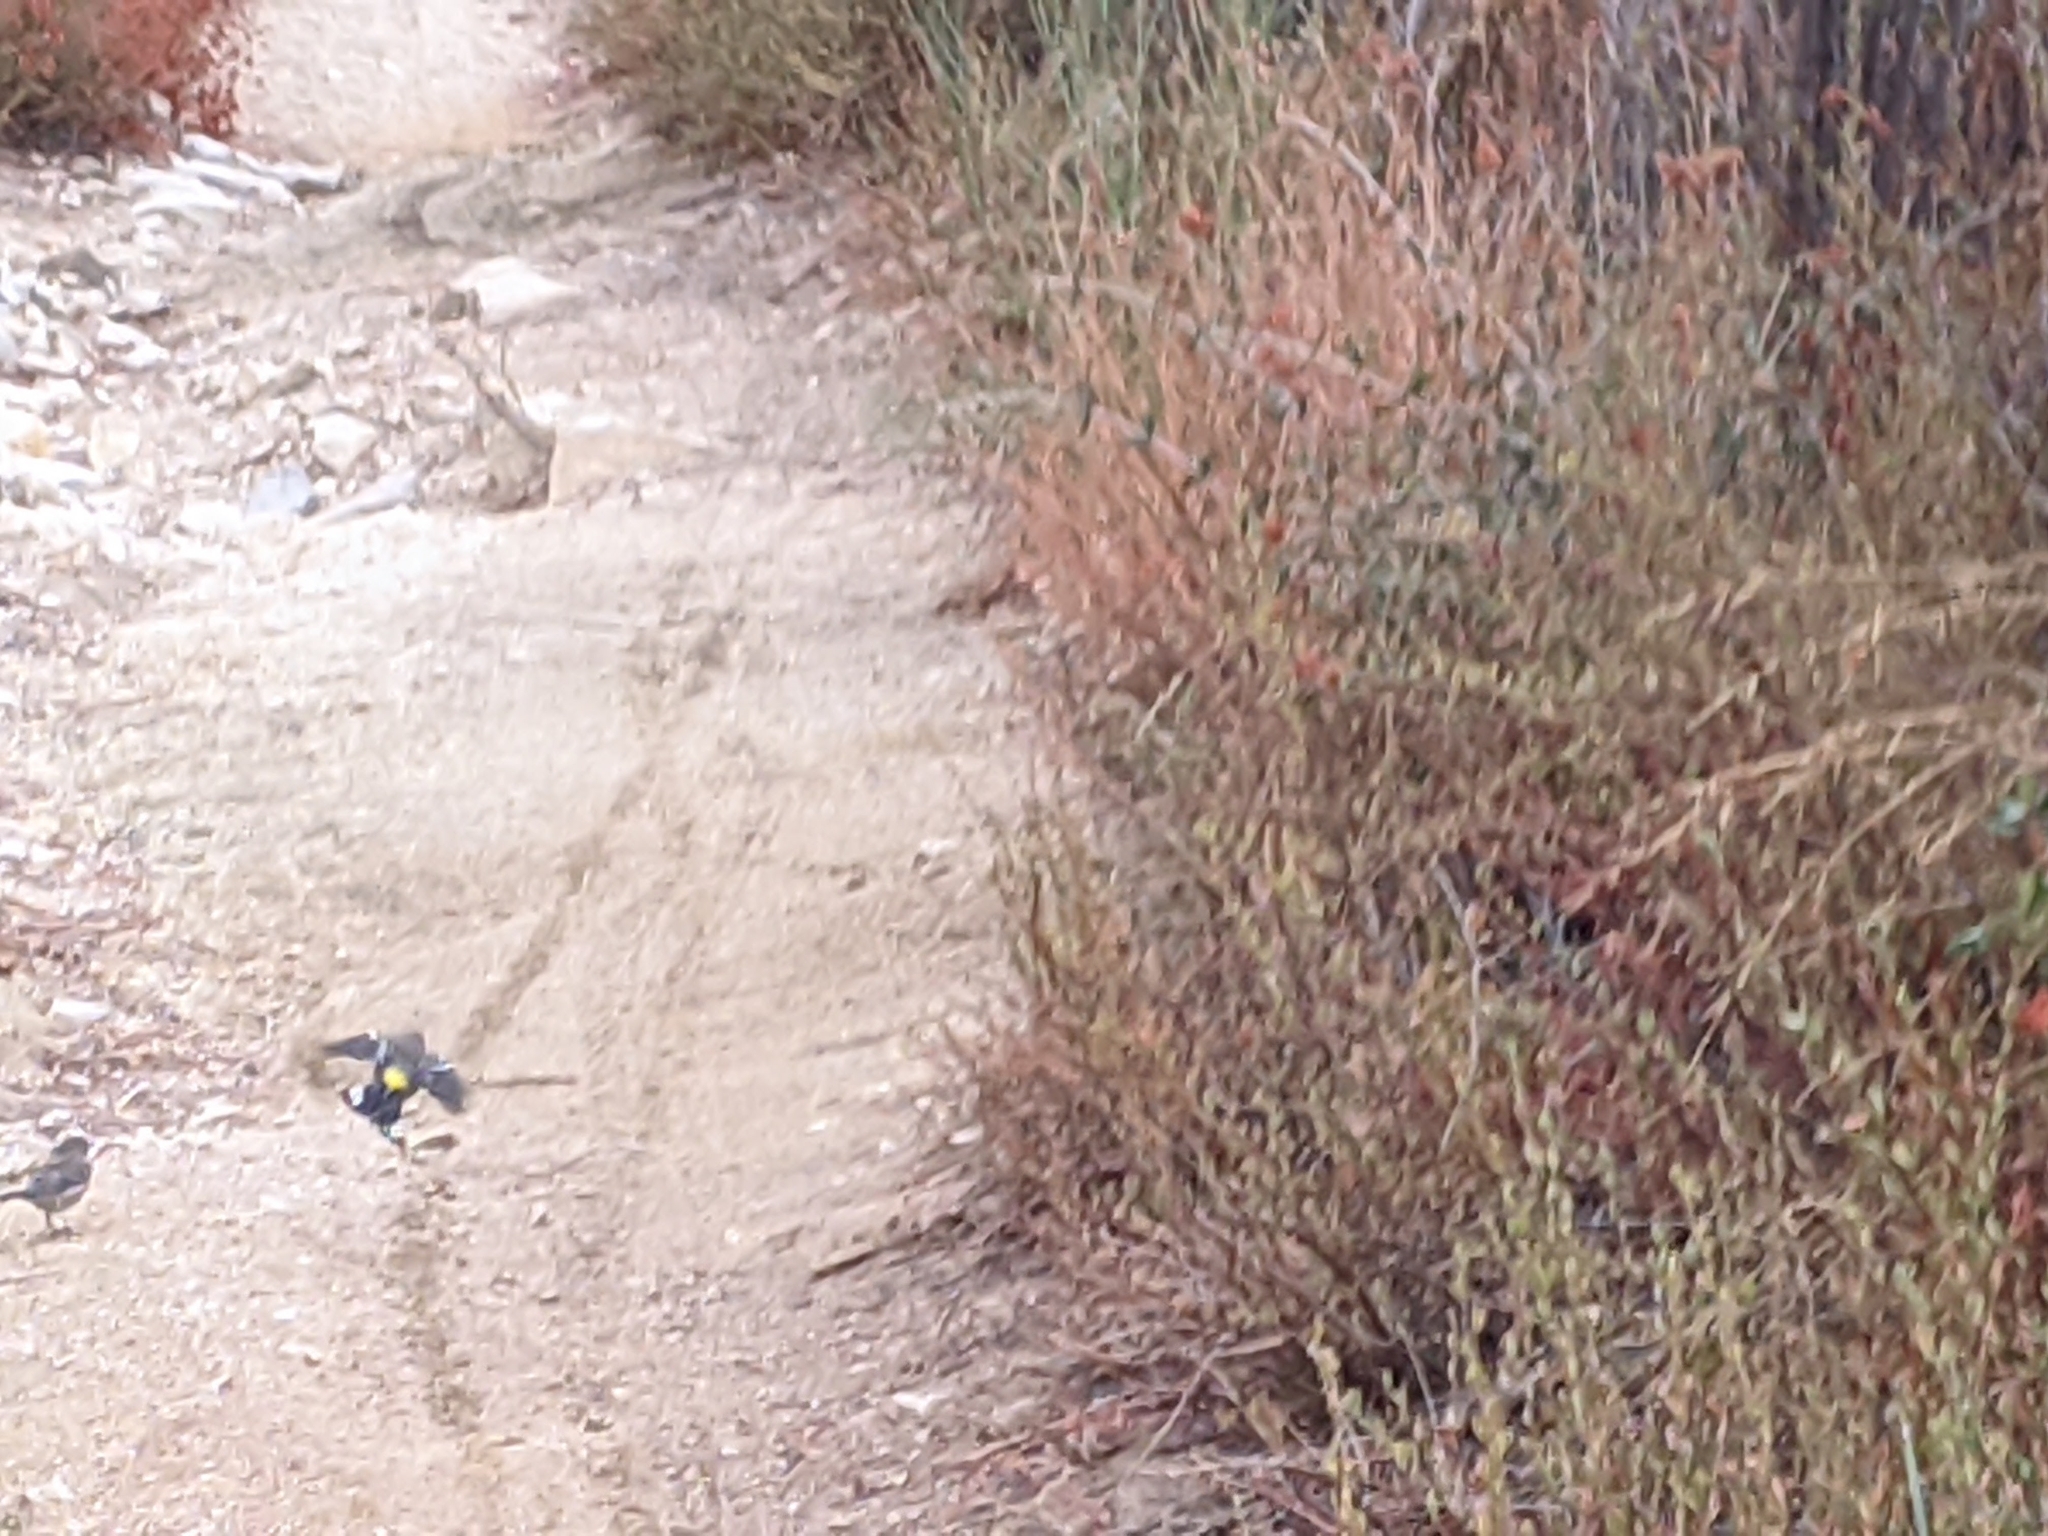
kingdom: Animalia
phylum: Chordata
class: Aves
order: Passeriformes
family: Parulidae
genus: Setophaga
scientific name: Setophaga coronata
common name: Myrtle warbler
